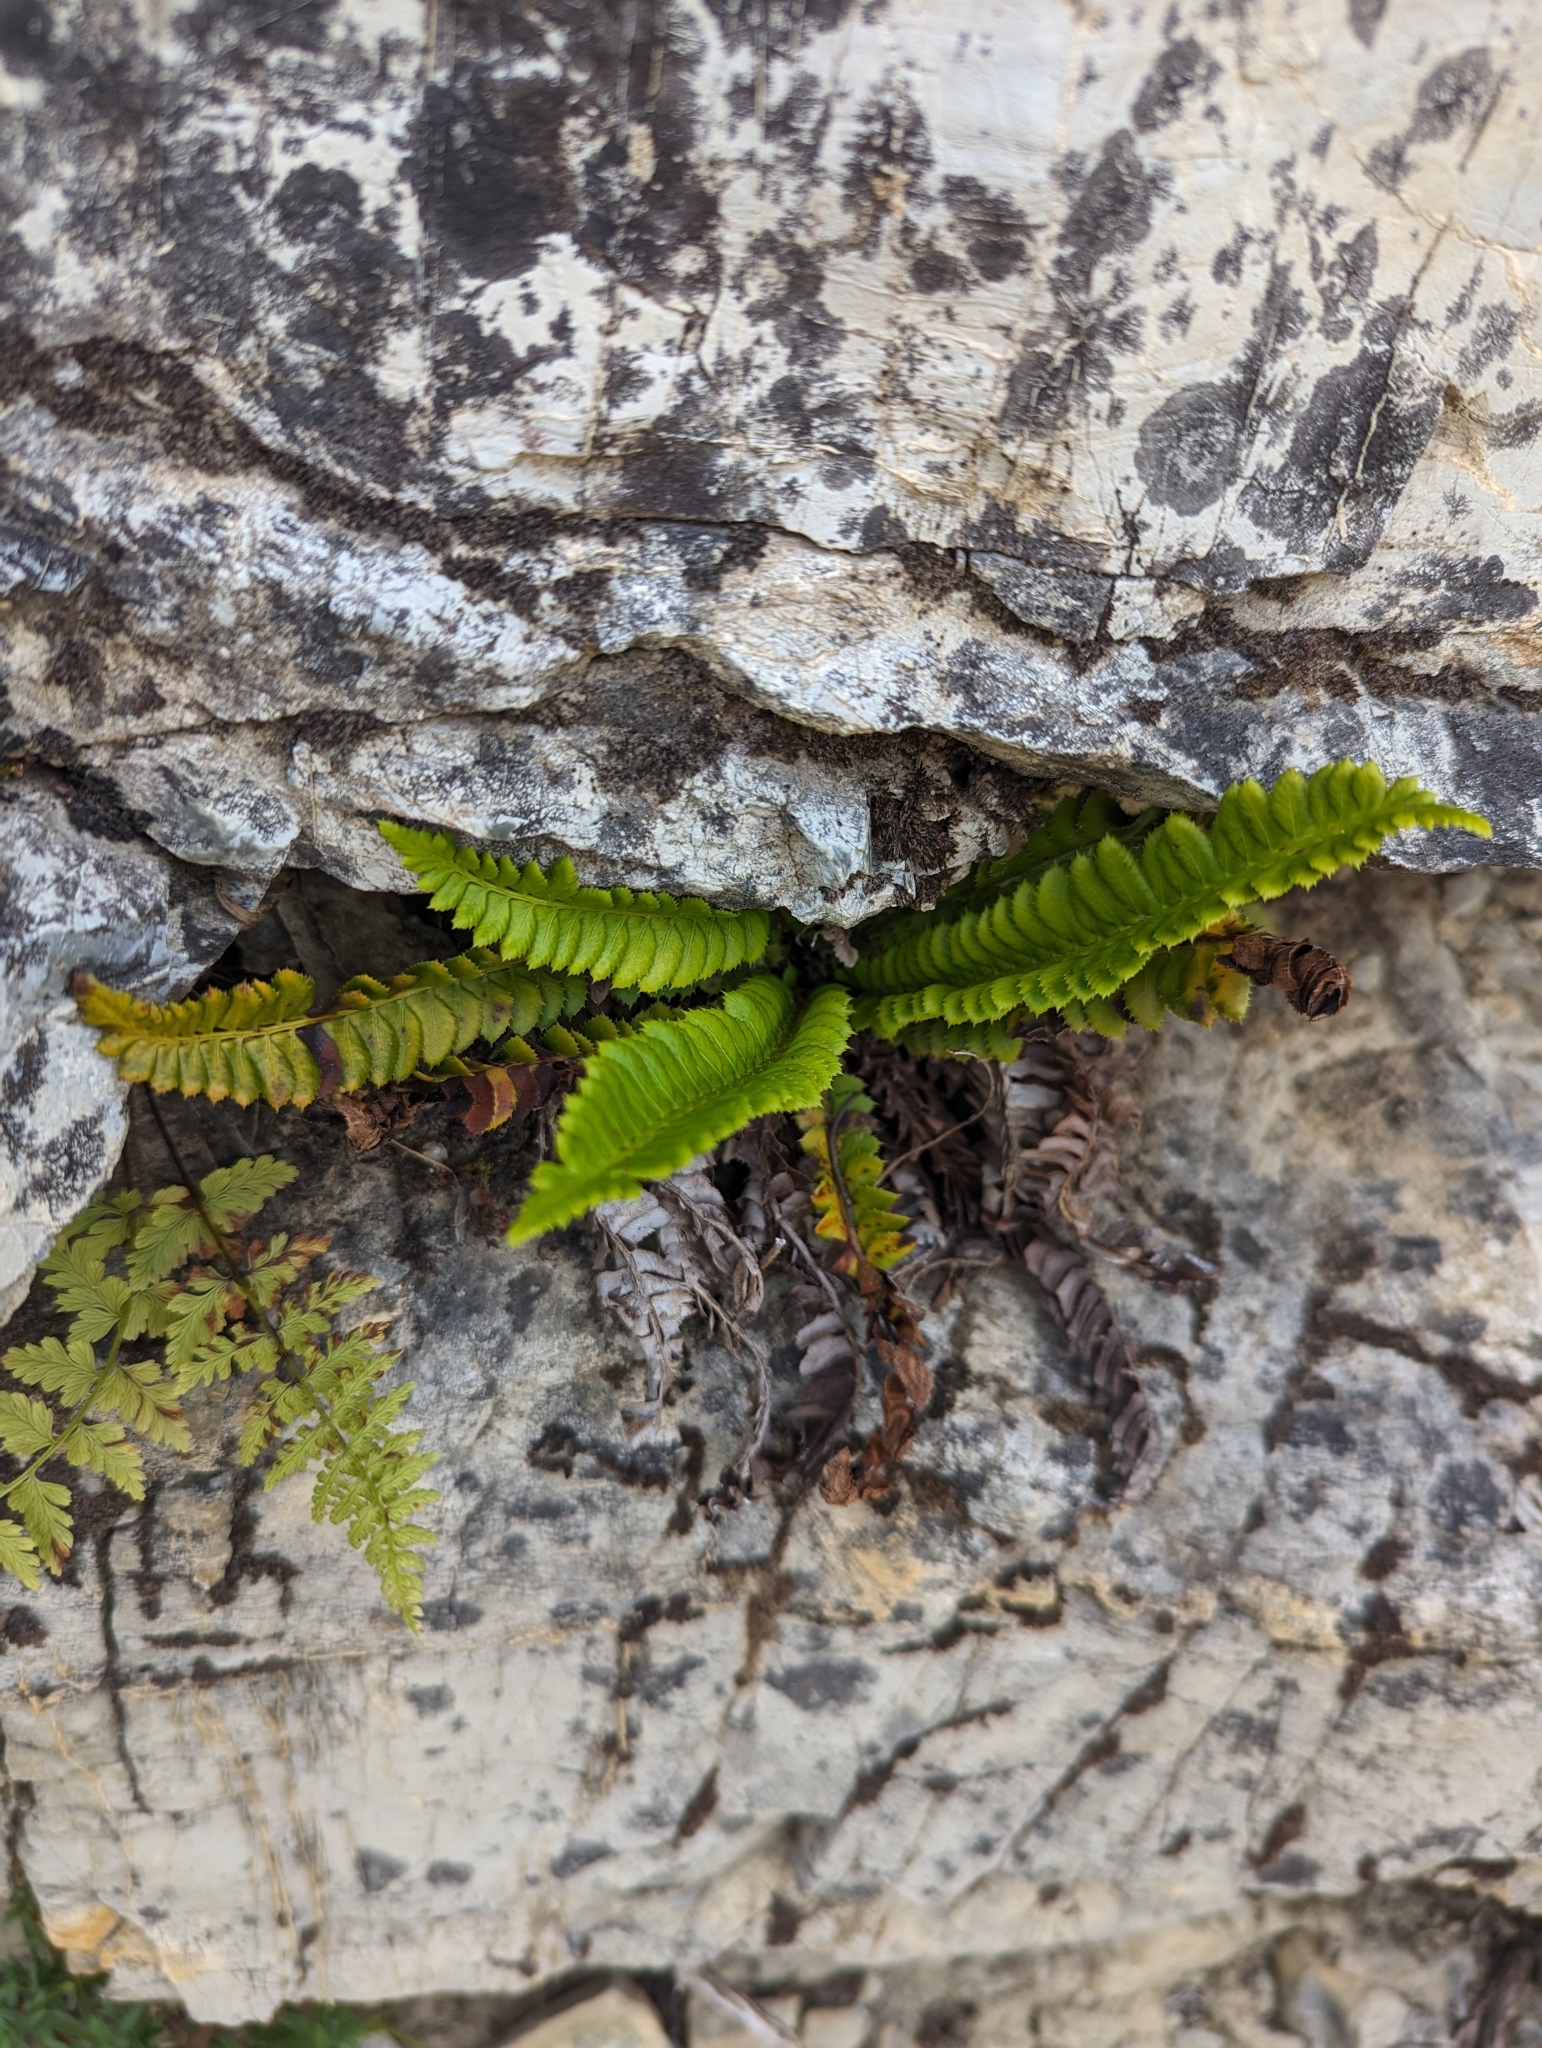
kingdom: Plantae
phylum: Tracheophyta
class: Polypodiopsida
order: Polypodiales
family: Dryopteridaceae
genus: Polystichum
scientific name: Polystichum lonchitis
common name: Holly fern
